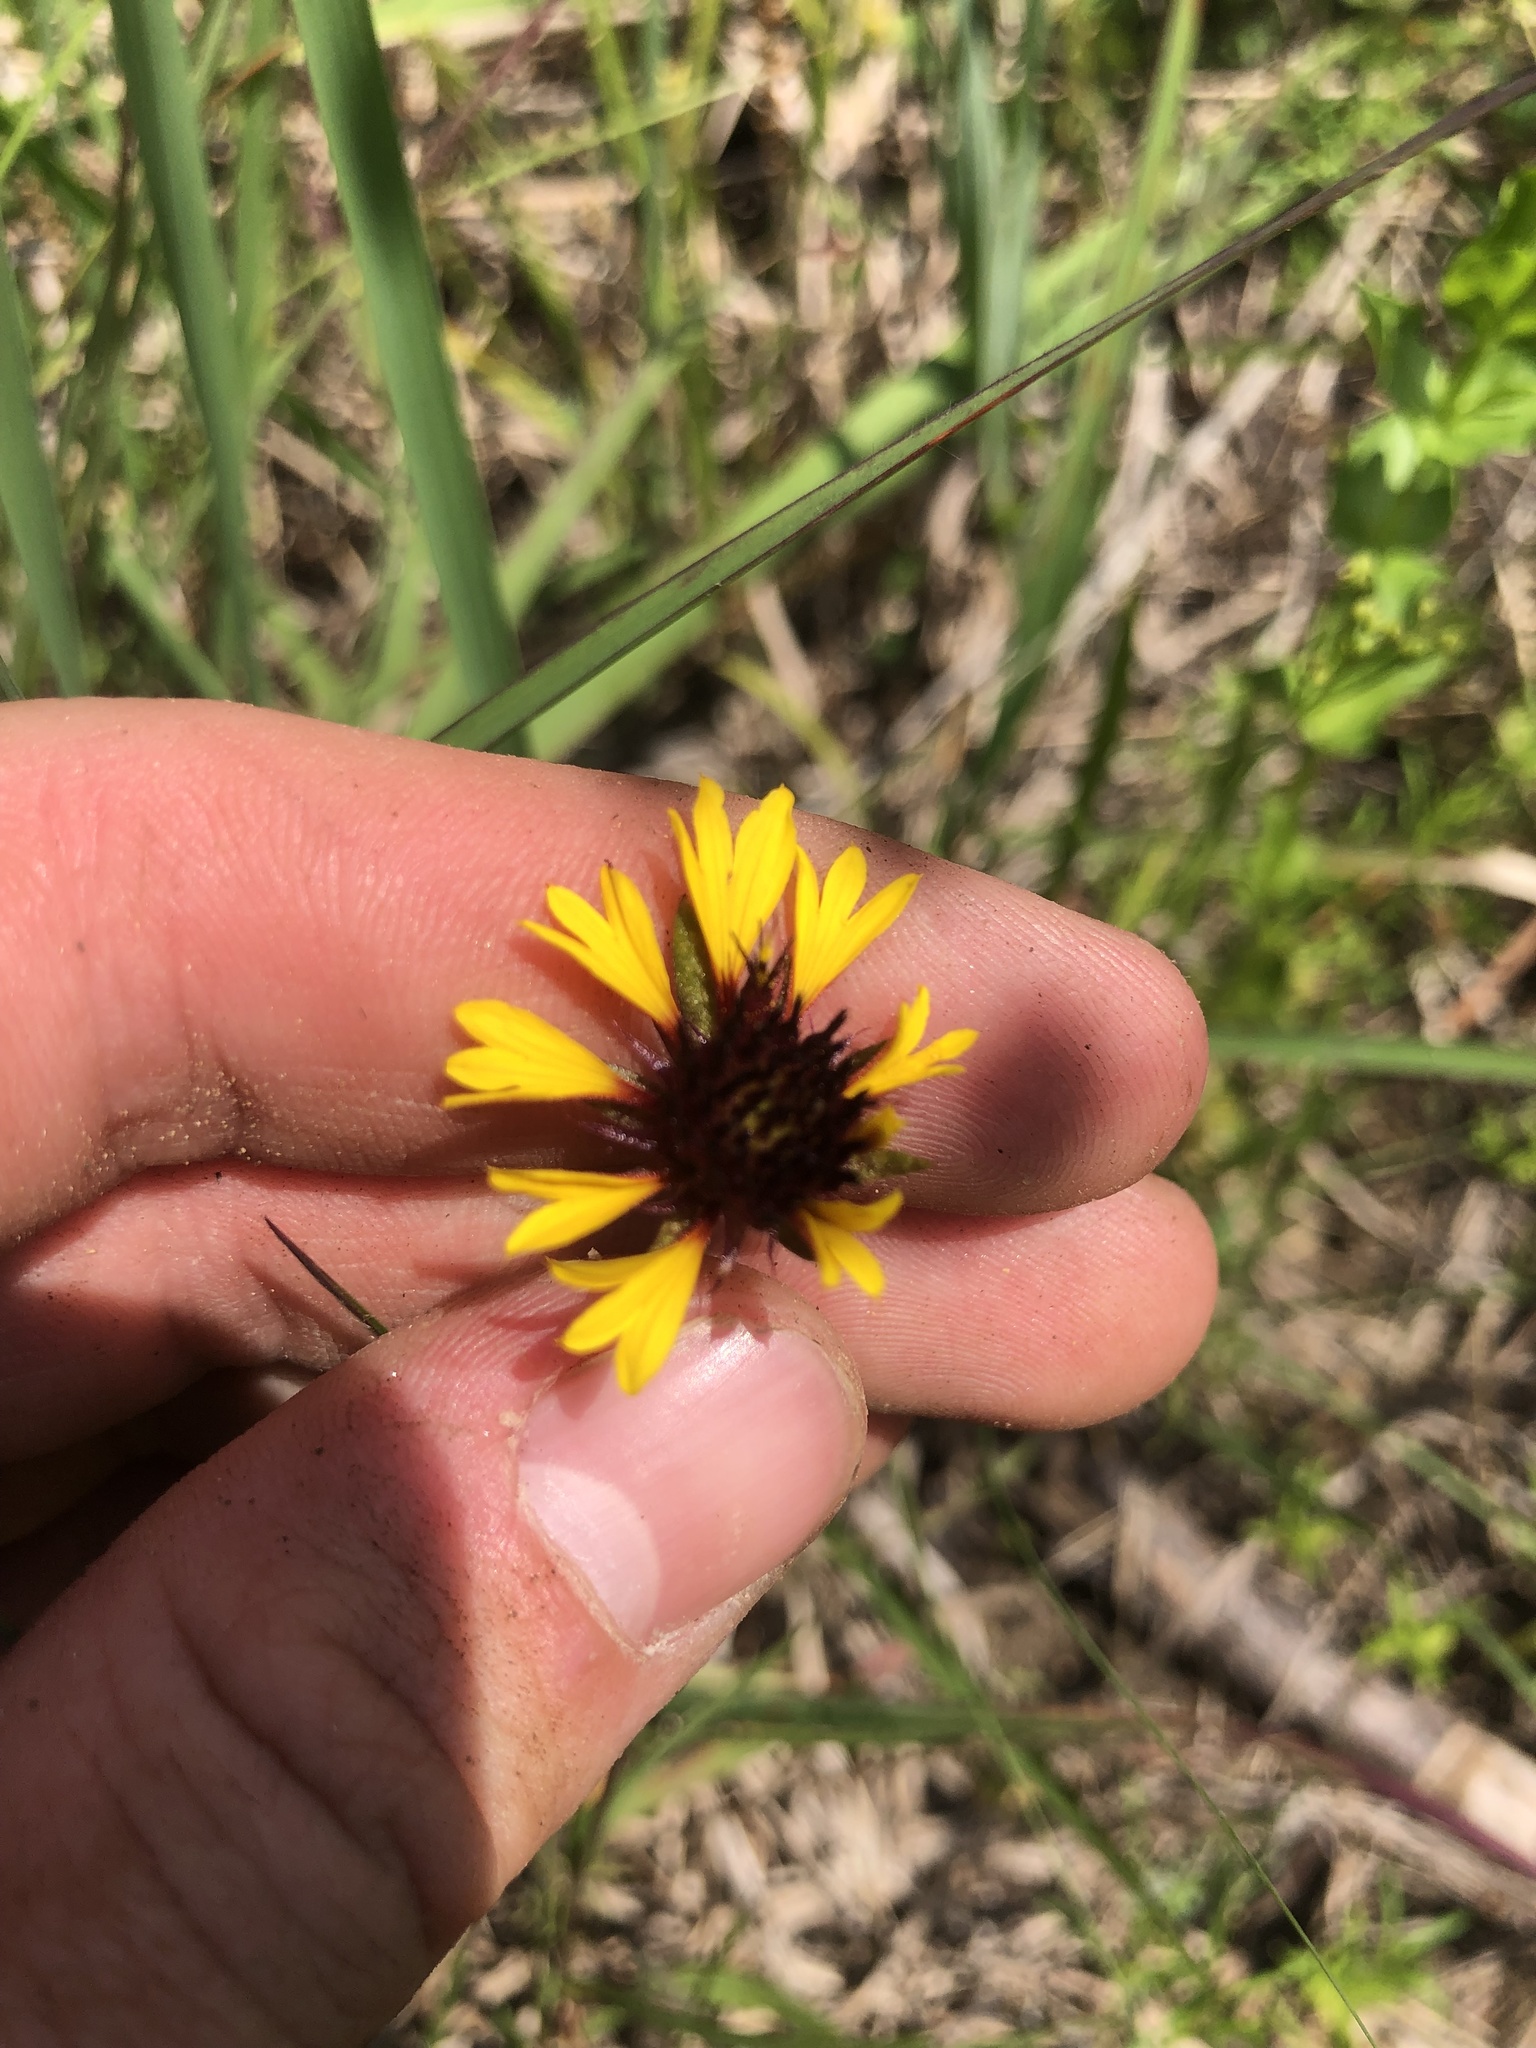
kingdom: Plantae
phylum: Tracheophyta
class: Magnoliopsida
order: Asterales
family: Asteraceae
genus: Gaillardia
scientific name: Gaillardia aestivalis
